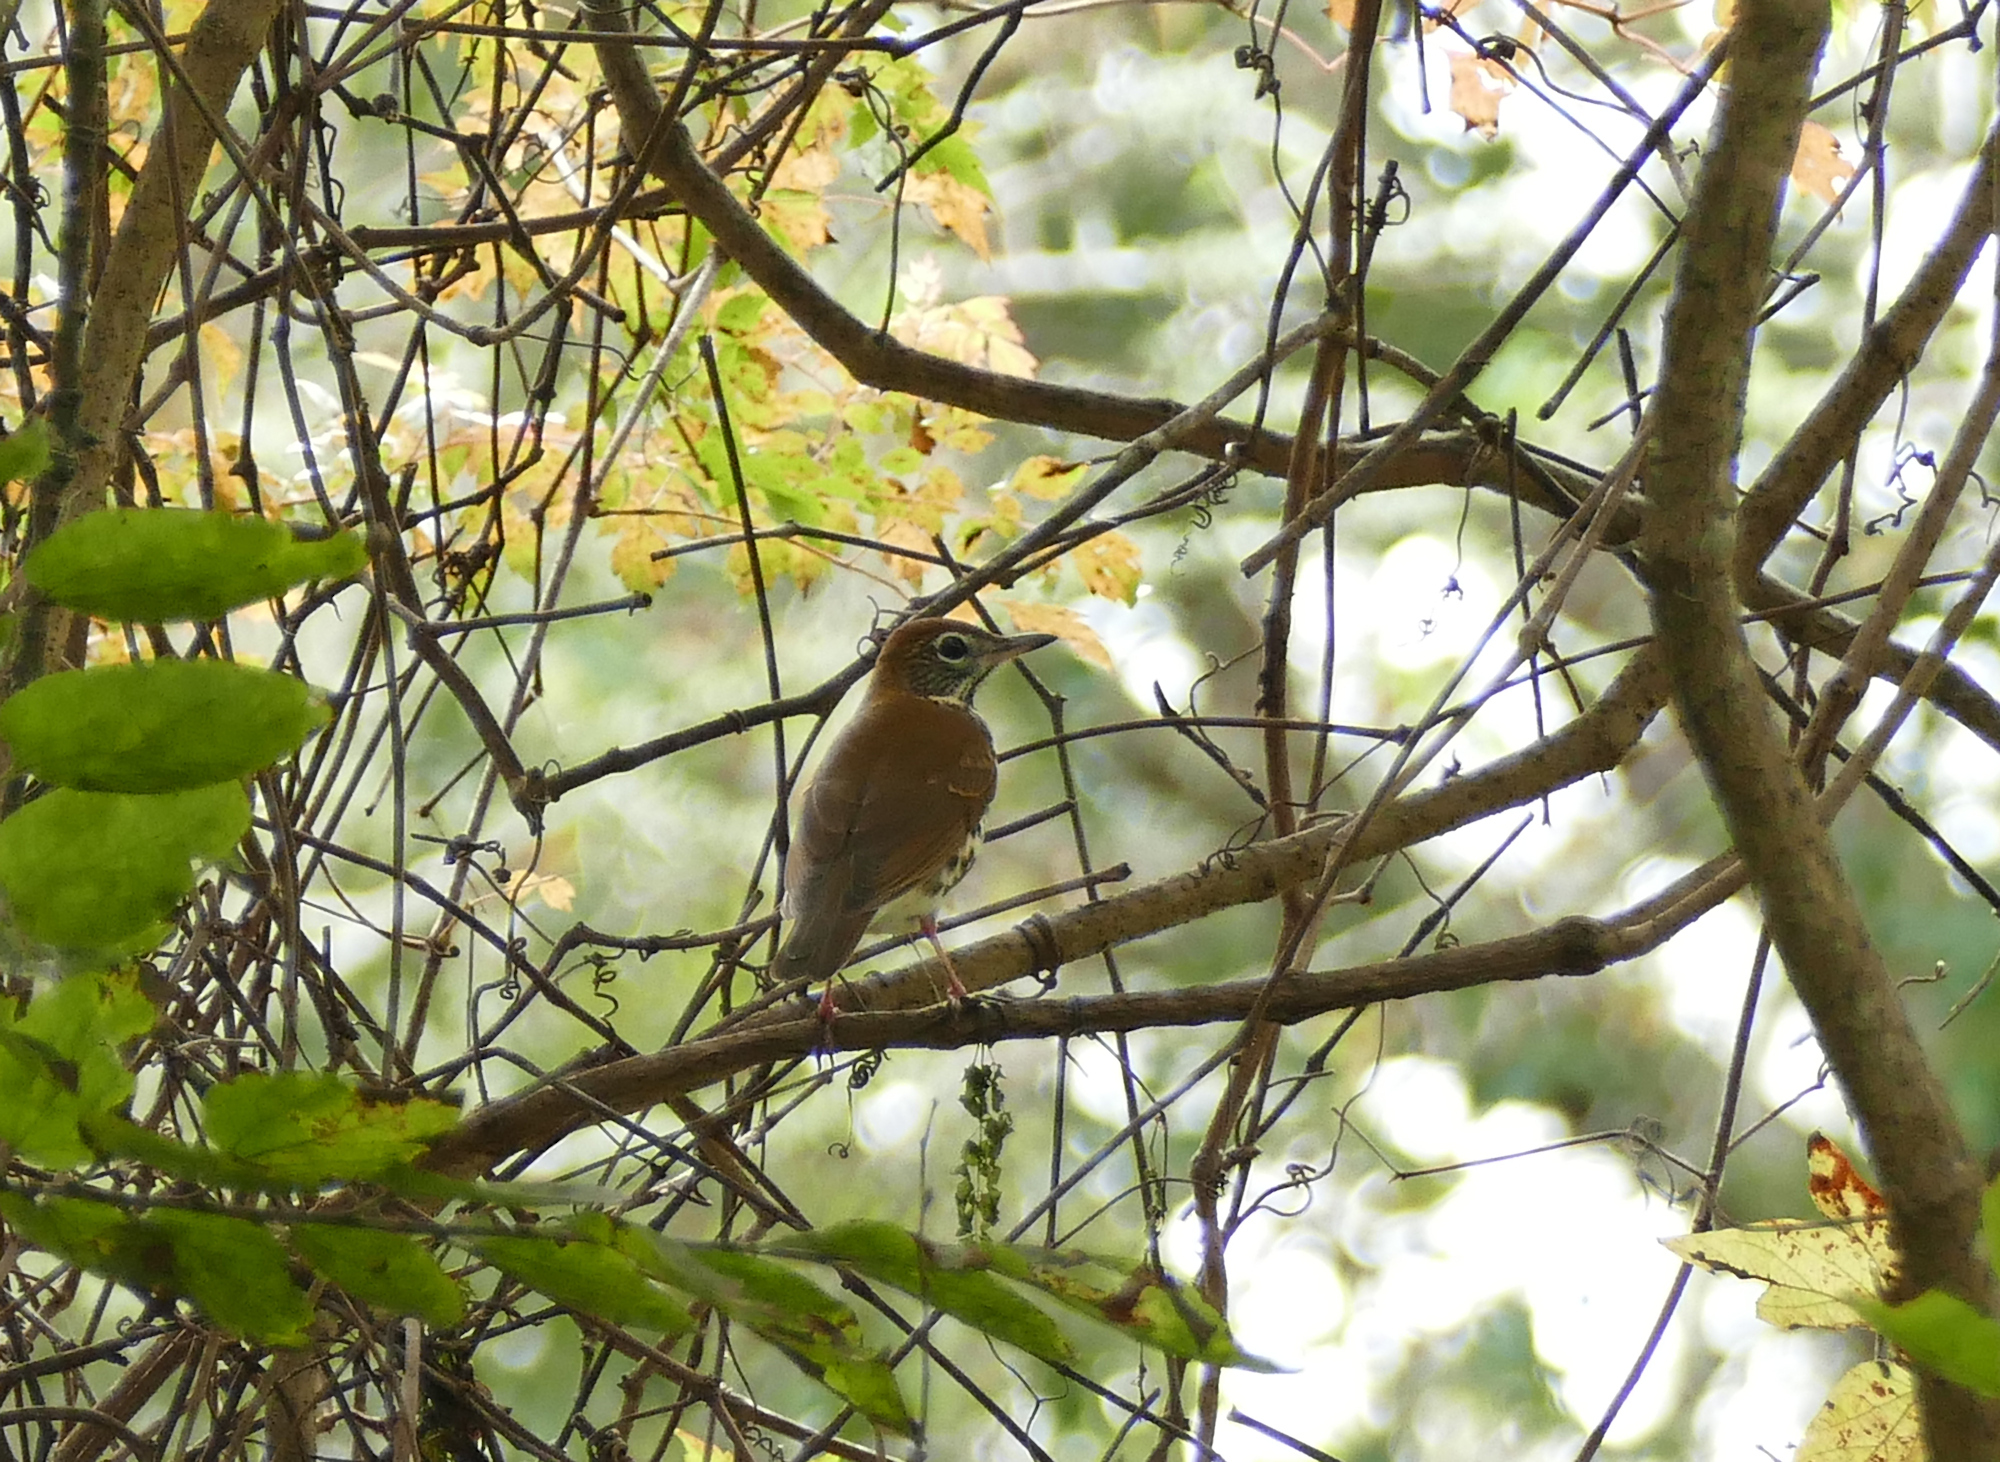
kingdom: Animalia
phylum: Chordata
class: Aves
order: Passeriformes
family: Turdidae
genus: Hylocichla
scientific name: Hylocichla mustelina
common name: Wood thrush
